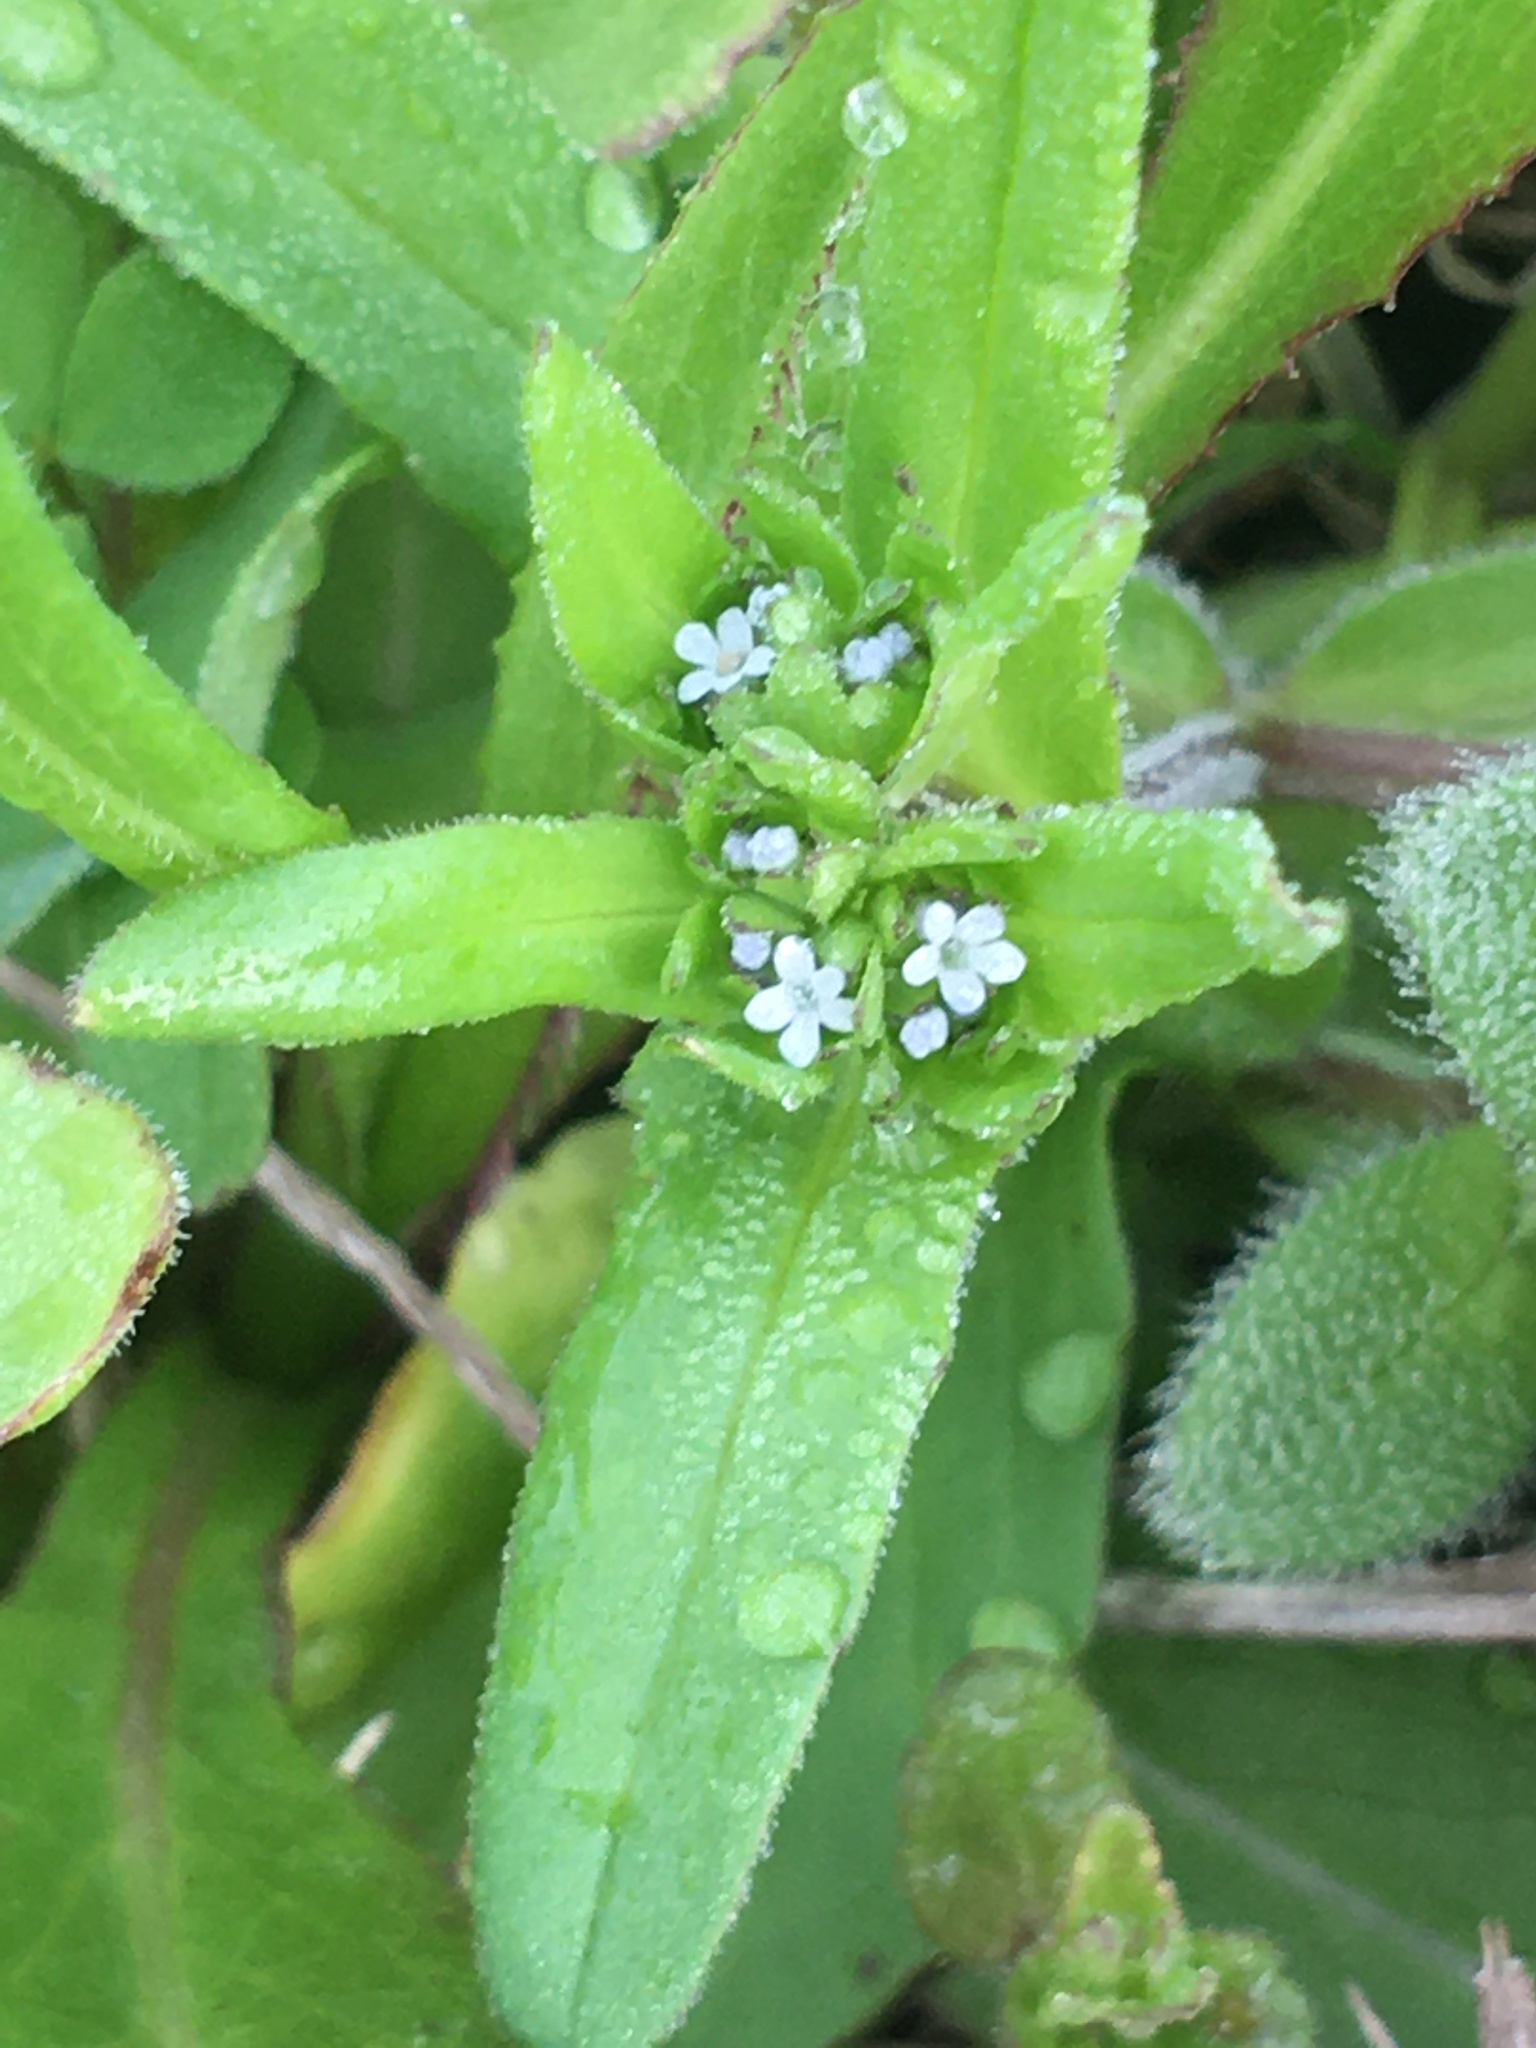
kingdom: Plantae
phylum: Tracheophyta
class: Magnoliopsida
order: Dipsacales
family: Caprifoliaceae
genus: Valerianella
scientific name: Valerianella locusta
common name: Common cornsalad
